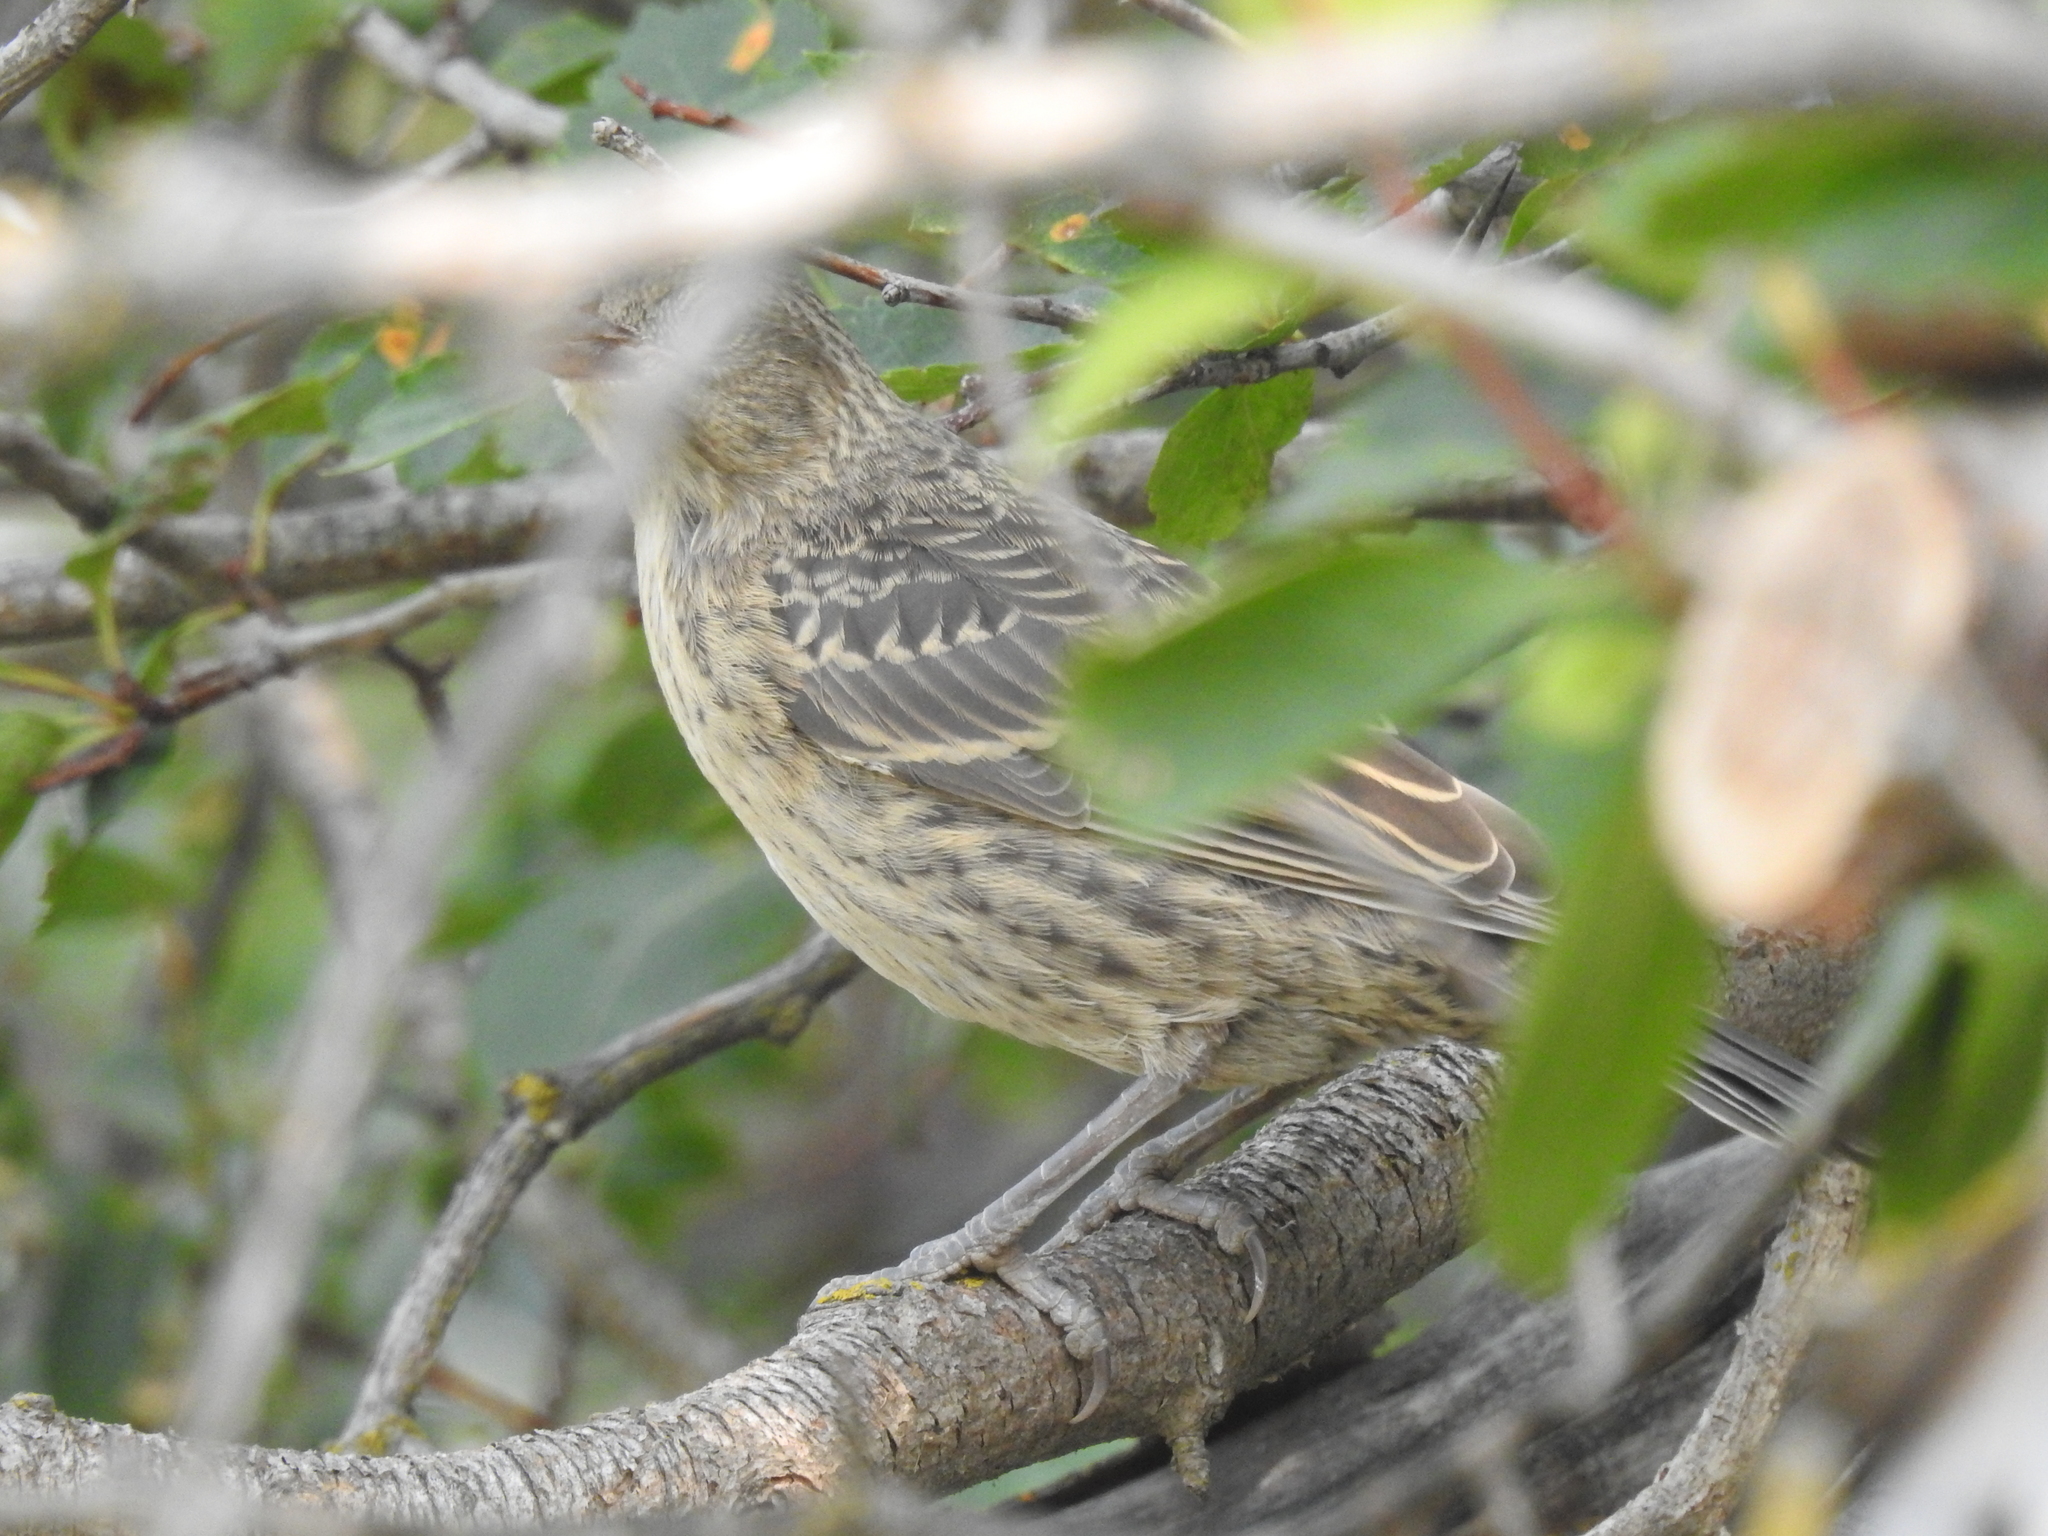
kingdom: Animalia
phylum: Chordata
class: Aves
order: Passeriformes
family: Icteridae
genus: Molothrus
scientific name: Molothrus ater
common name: Brown-headed cowbird
